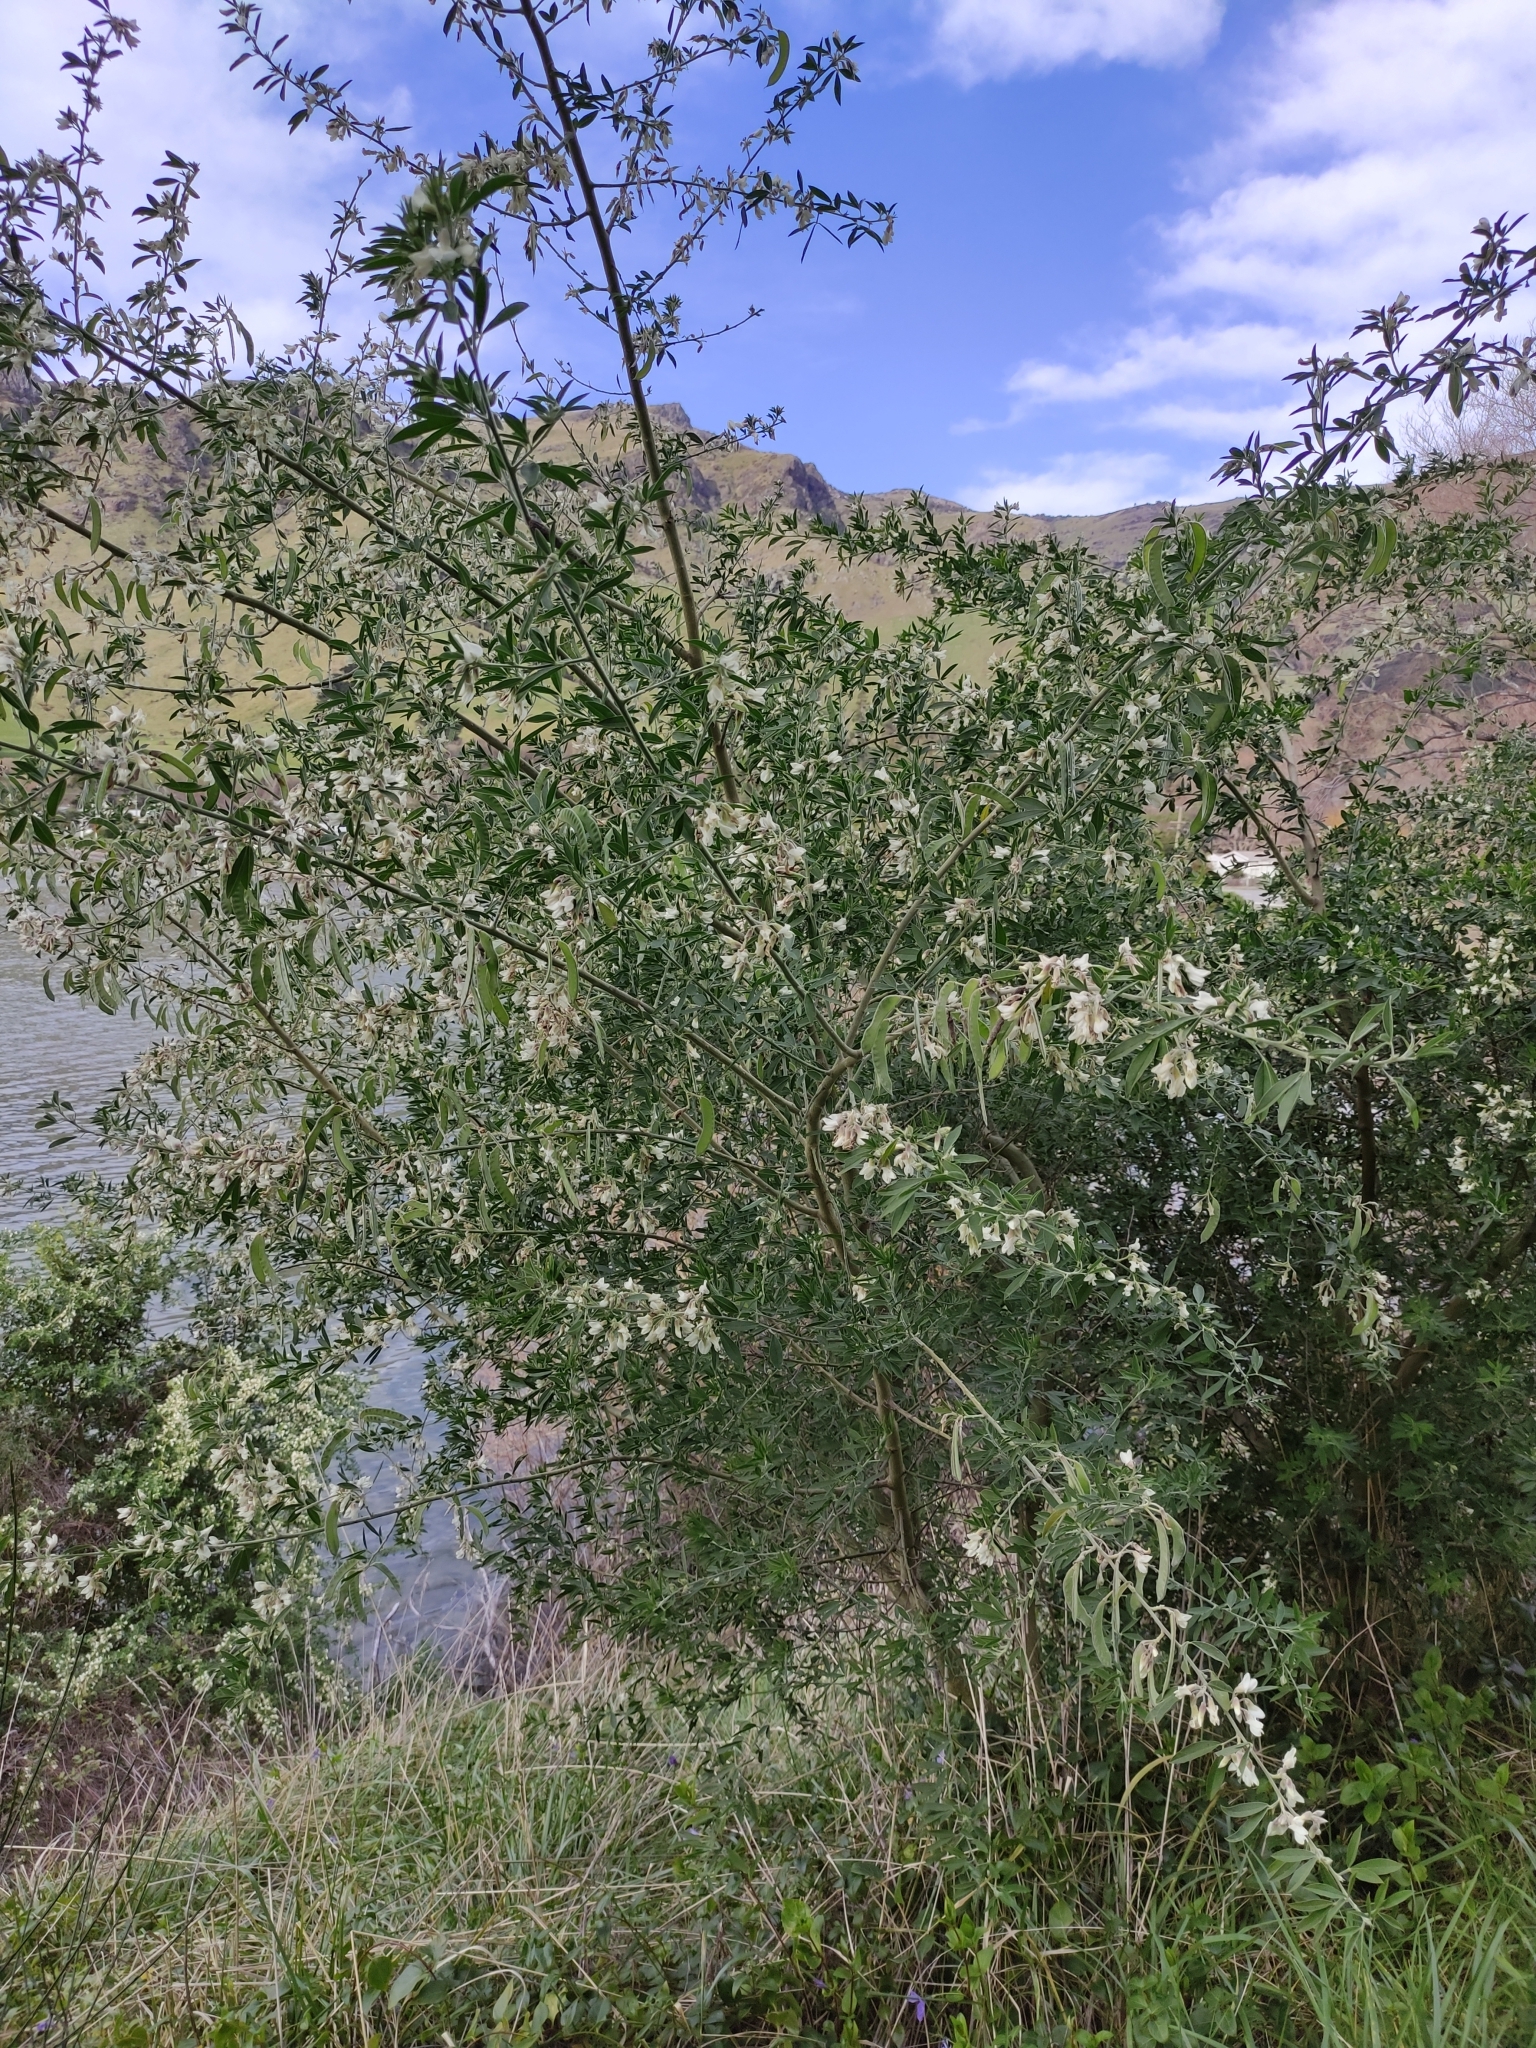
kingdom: Plantae
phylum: Tracheophyta
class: Magnoliopsida
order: Fabales
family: Fabaceae
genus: Chamaecytisus
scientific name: Chamaecytisus prolifer
